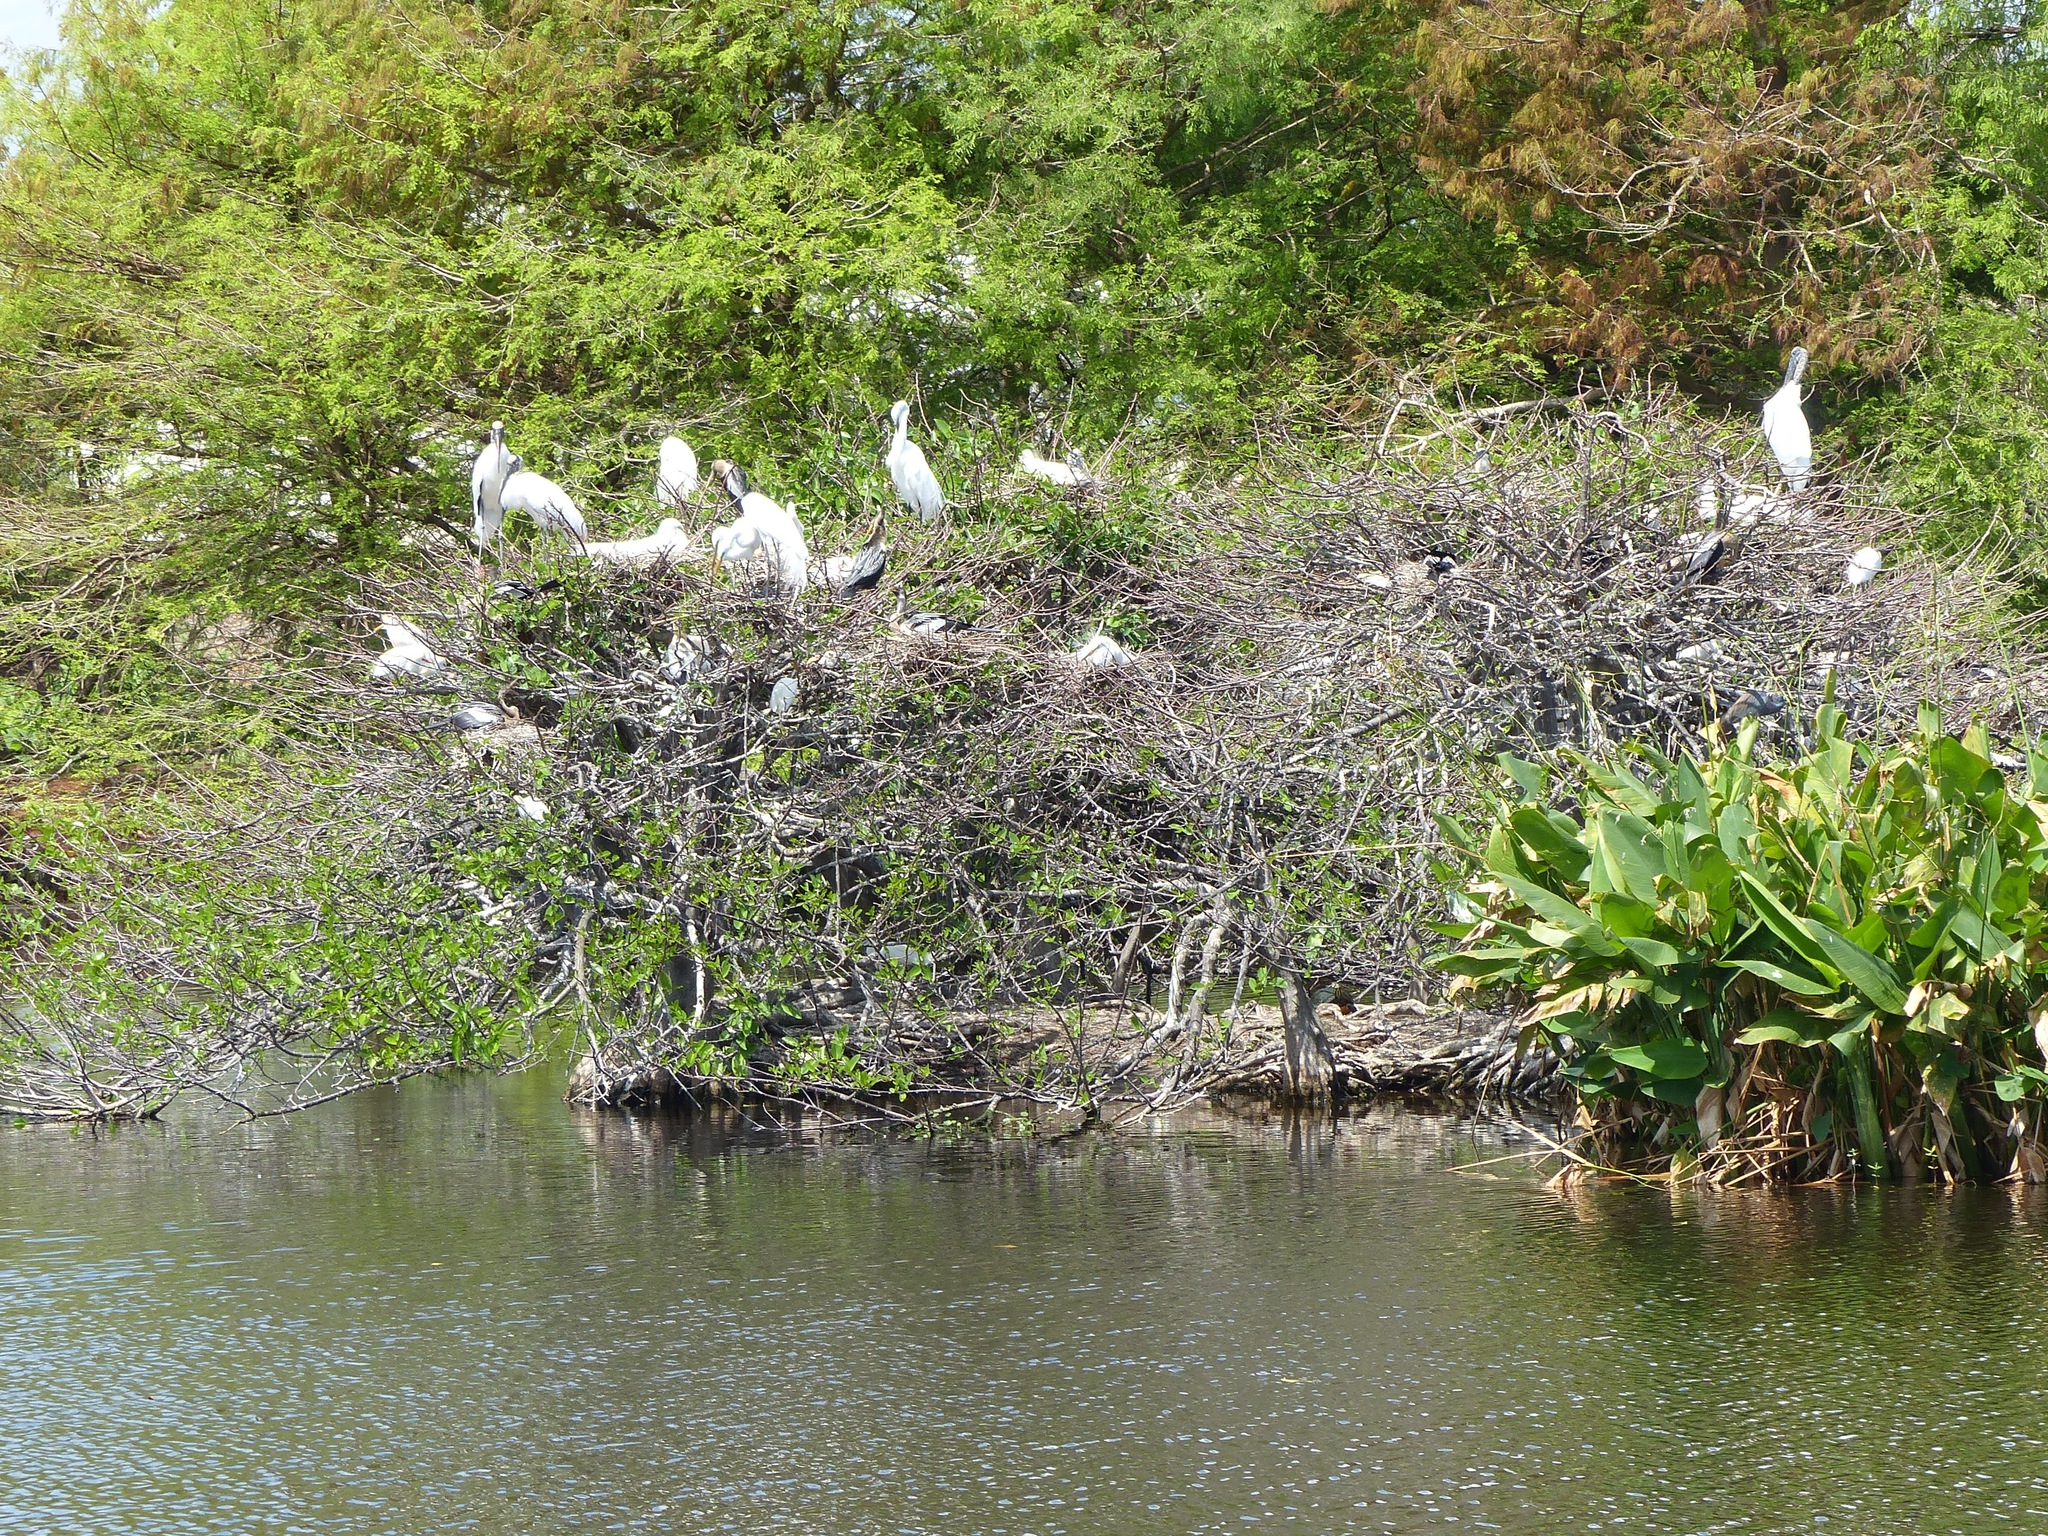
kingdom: Animalia
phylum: Chordata
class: Aves
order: Ciconiiformes
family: Ciconiidae
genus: Mycteria
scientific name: Mycteria americana
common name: Wood stork
